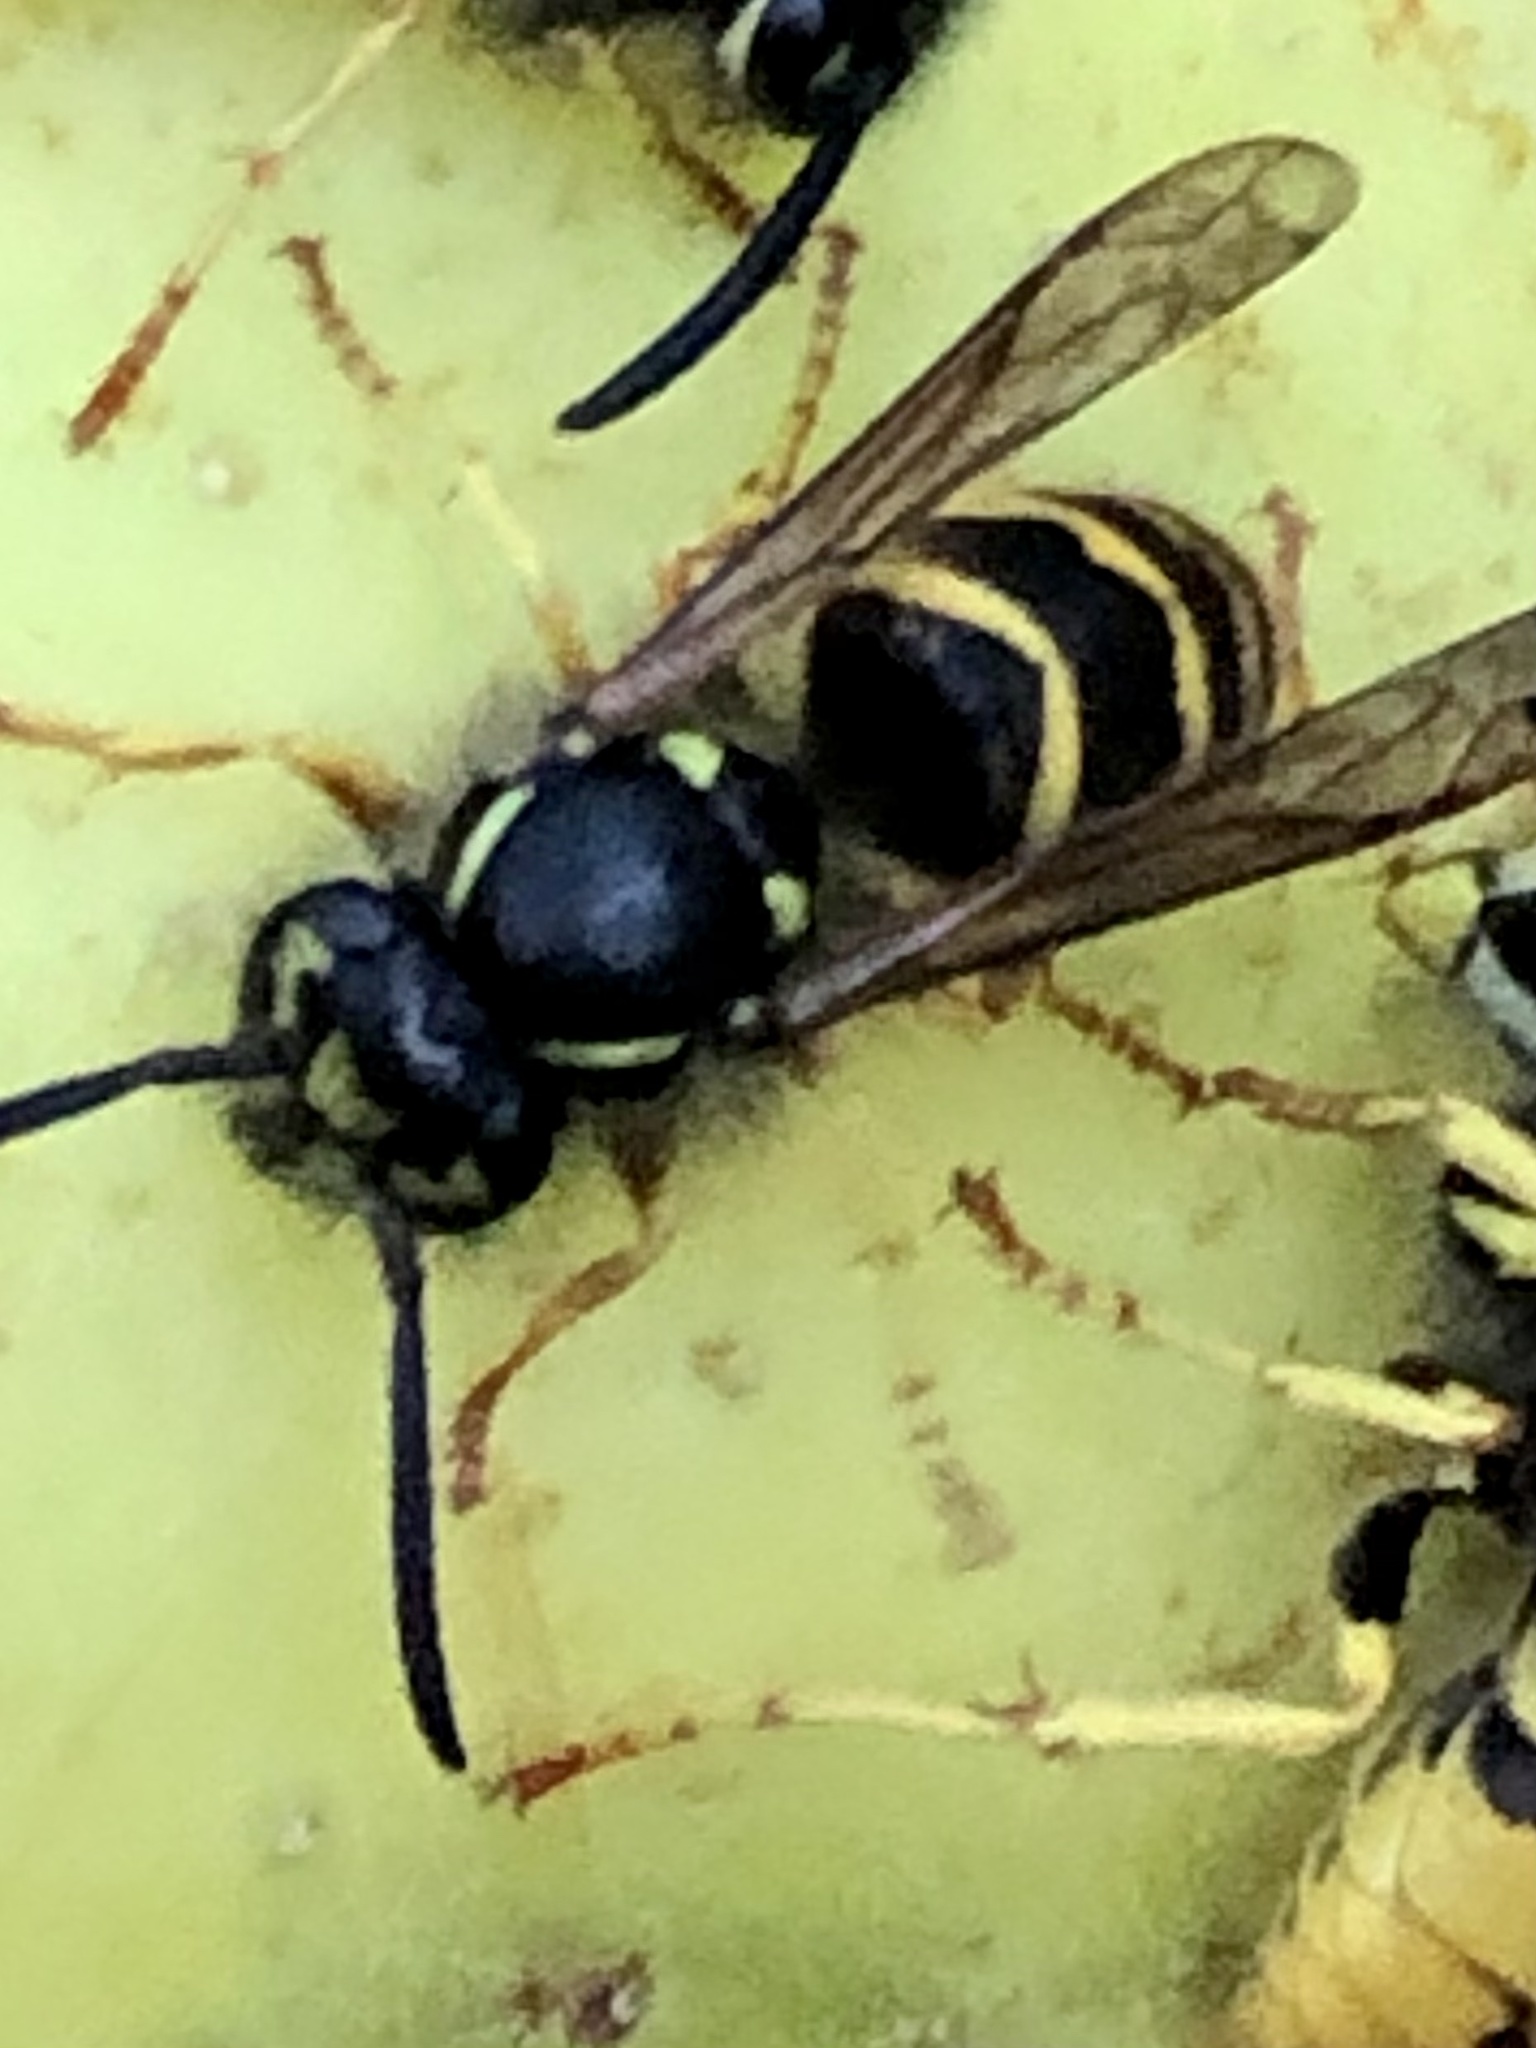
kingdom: Animalia
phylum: Arthropoda
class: Insecta
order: Hymenoptera
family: Vespidae
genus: Vespula
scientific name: Vespula alascensis
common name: Alaska yellowjacket
